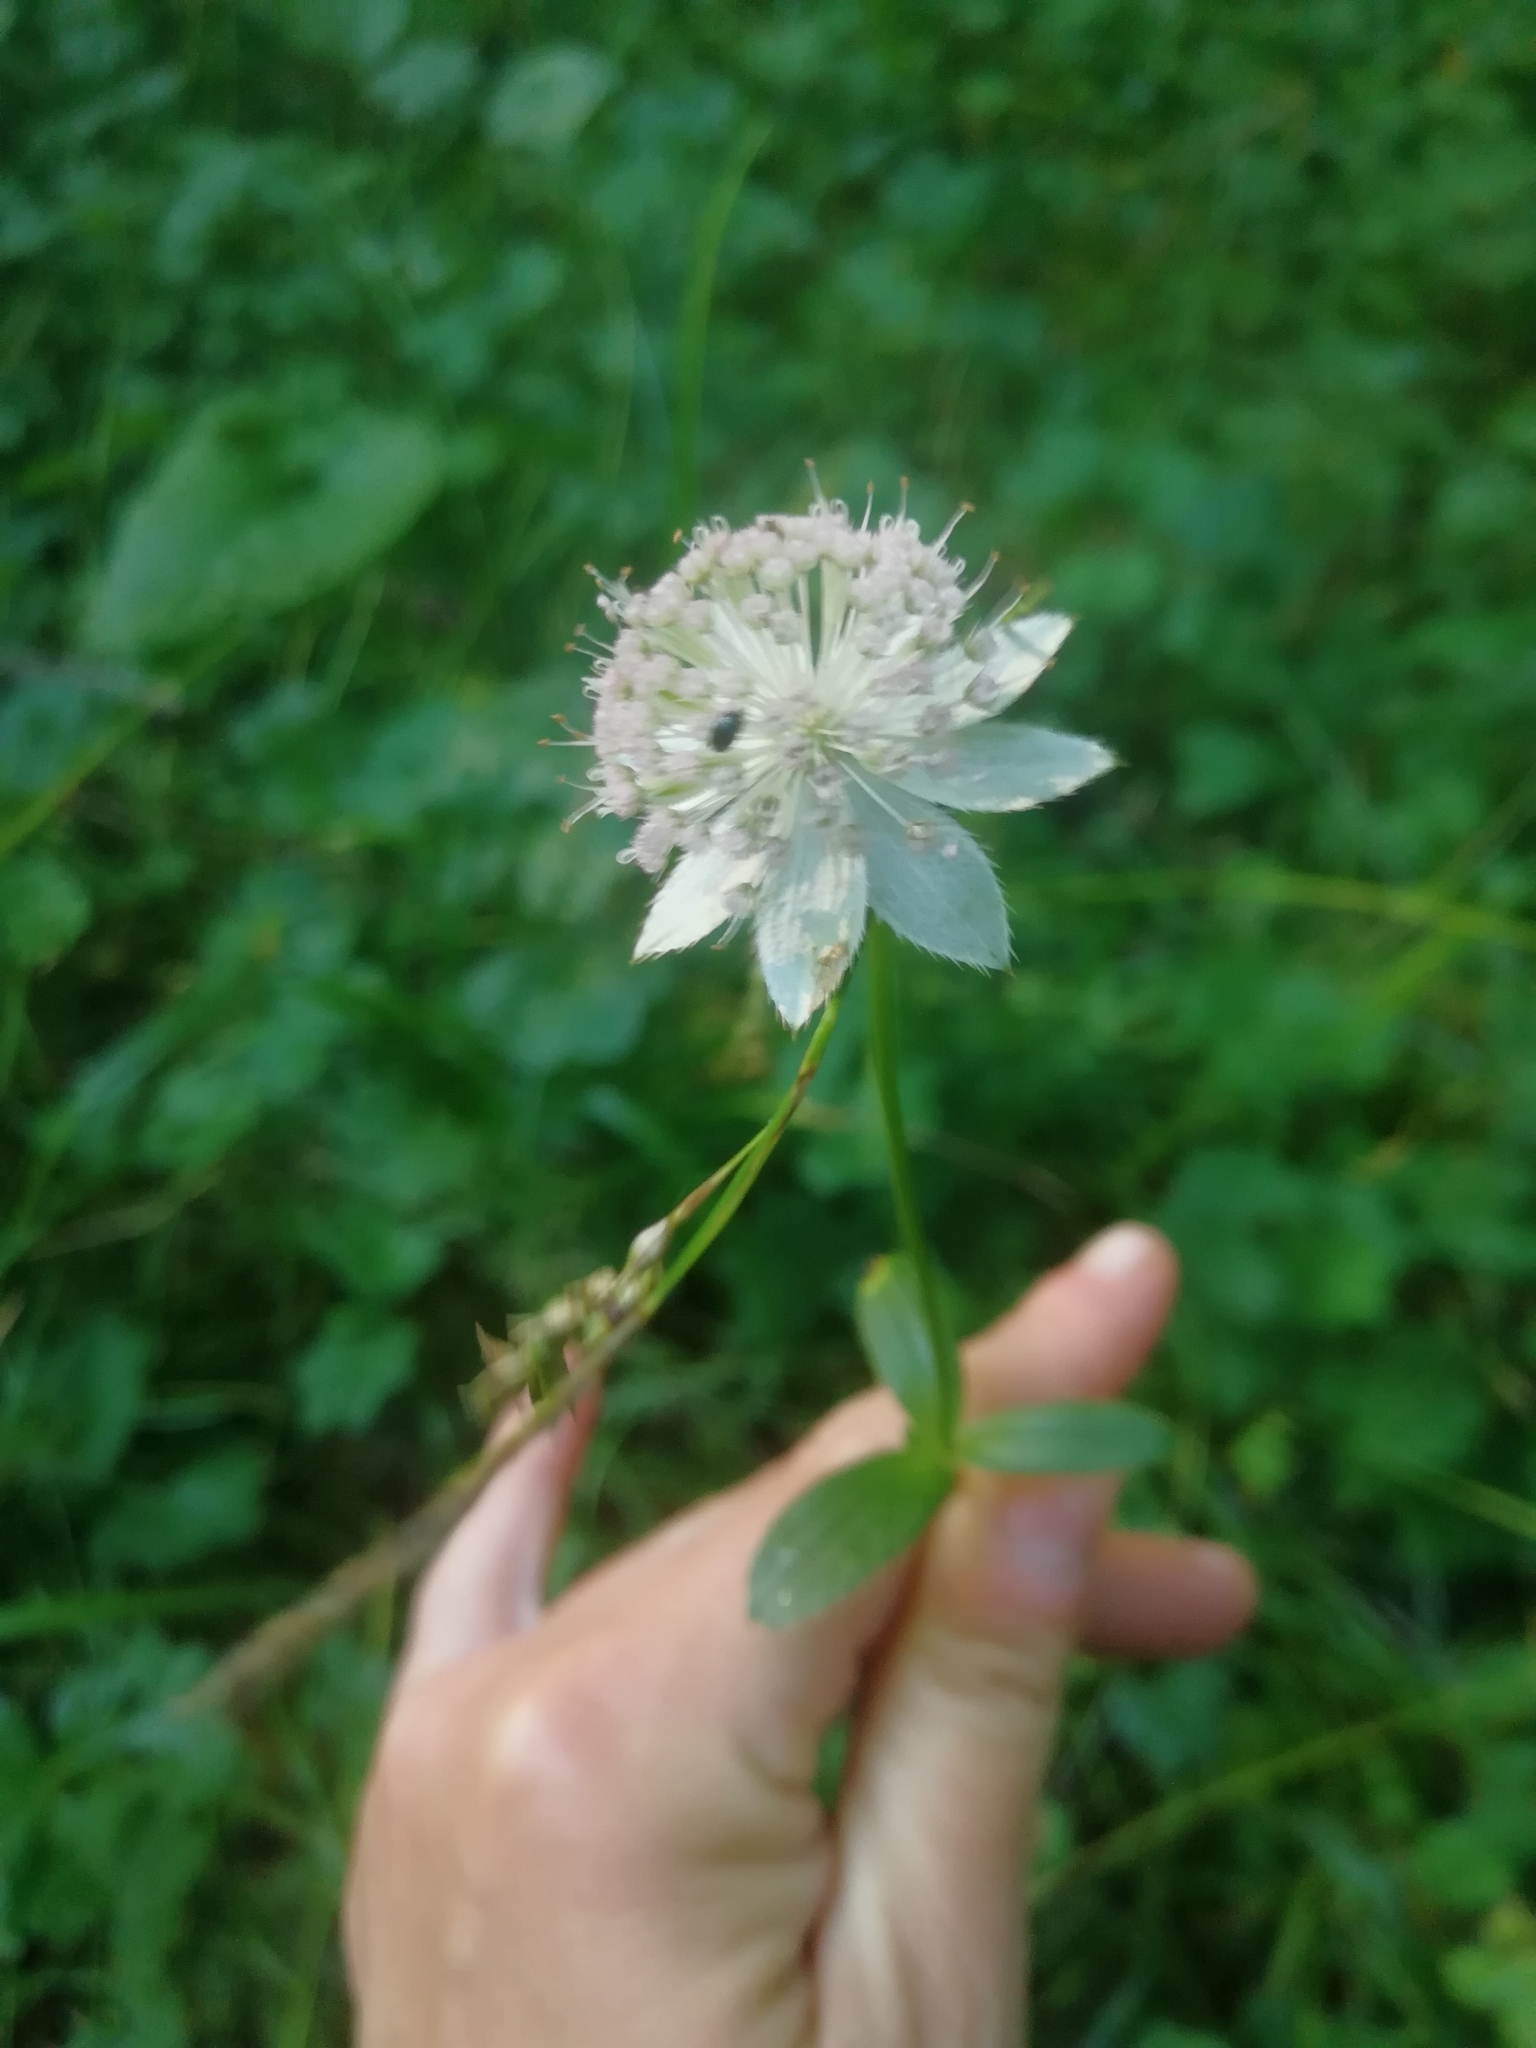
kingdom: Plantae
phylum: Tracheophyta
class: Magnoliopsida
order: Apiales
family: Apiaceae
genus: Astrantia
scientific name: Astrantia maxima
